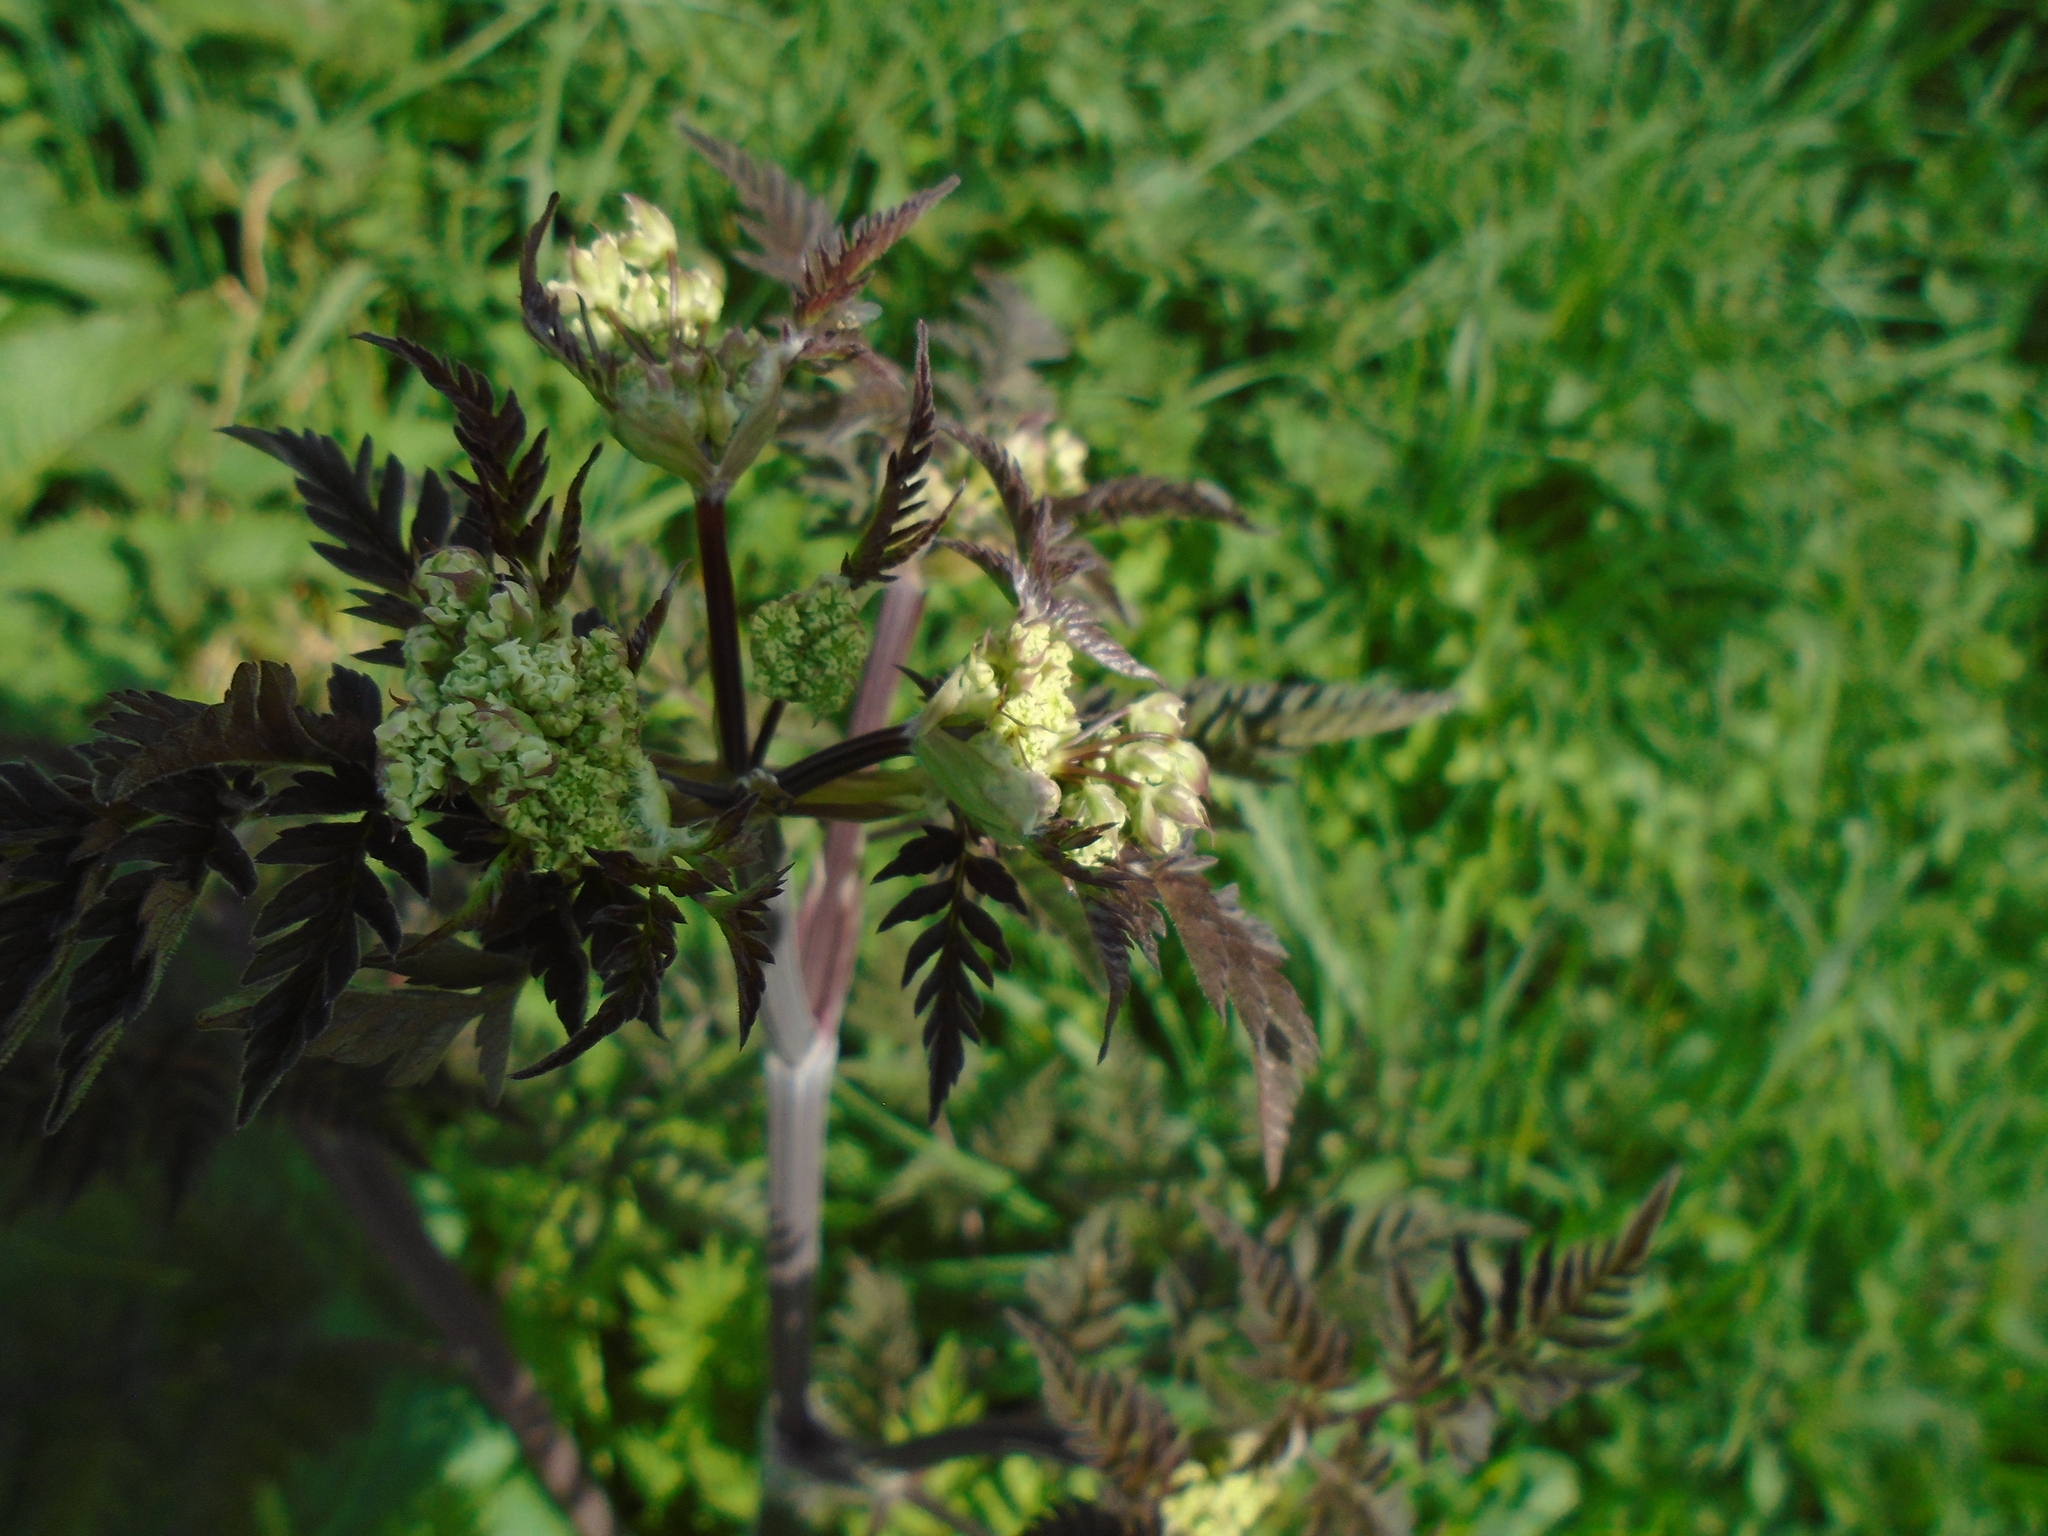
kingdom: Plantae
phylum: Tracheophyta
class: Magnoliopsida
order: Apiales
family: Apiaceae
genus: Anthriscus
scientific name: Anthriscus sylvestris
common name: Cow parsley
